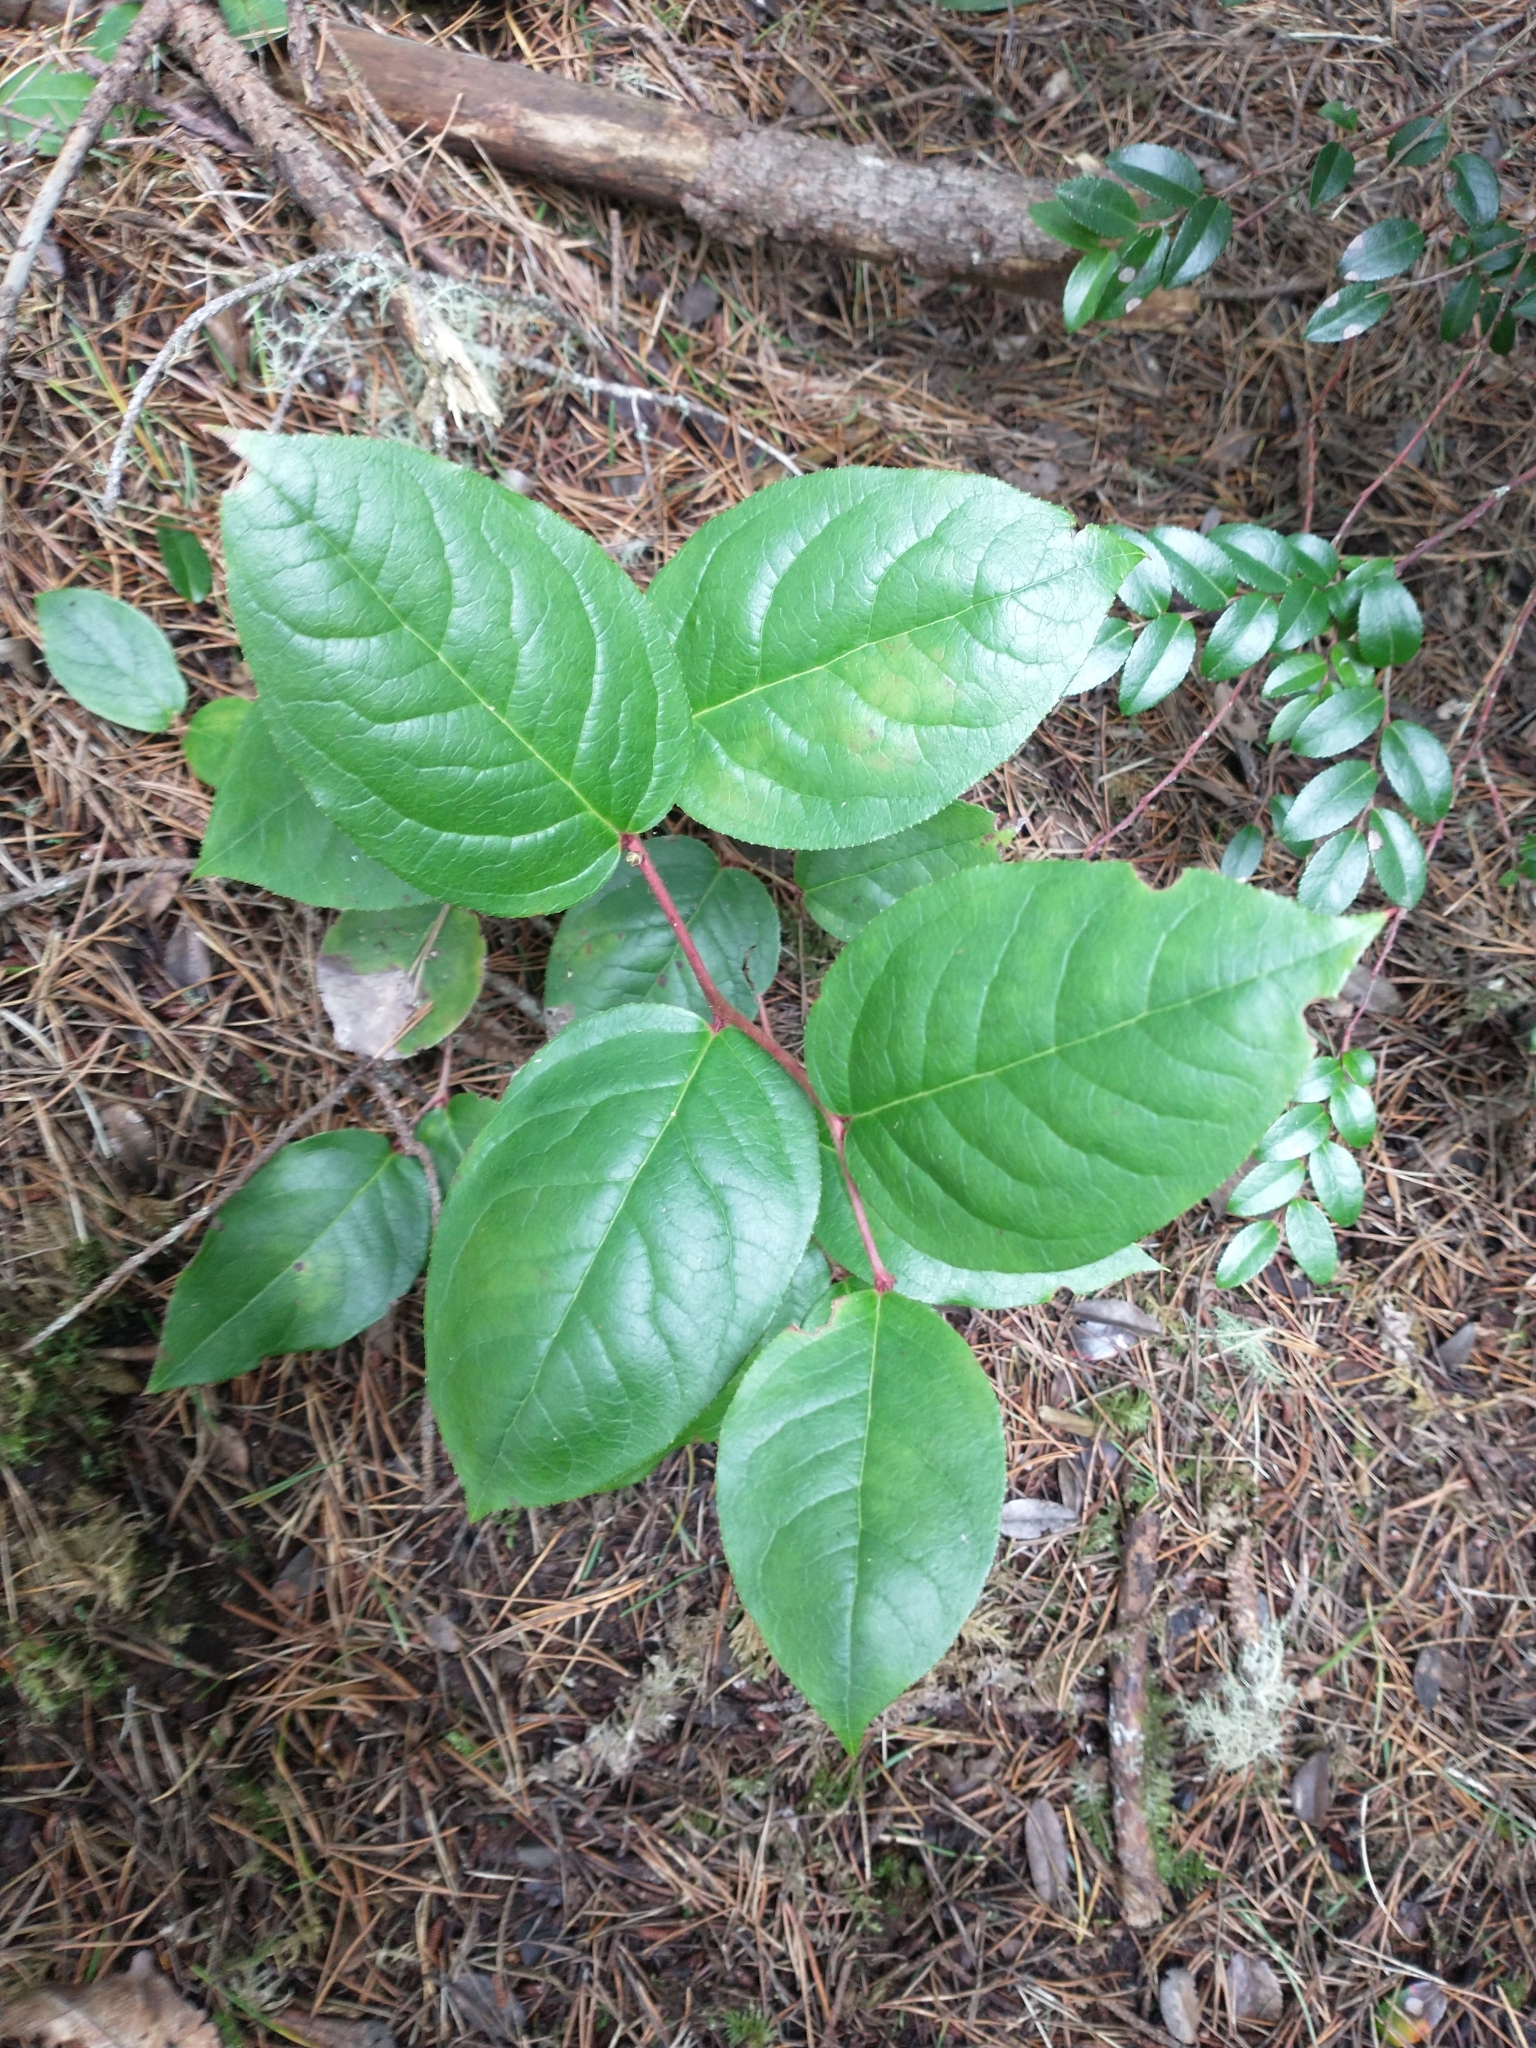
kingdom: Plantae
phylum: Tracheophyta
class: Magnoliopsida
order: Ericales
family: Ericaceae
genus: Gaultheria
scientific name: Gaultheria shallon
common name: Shallon
